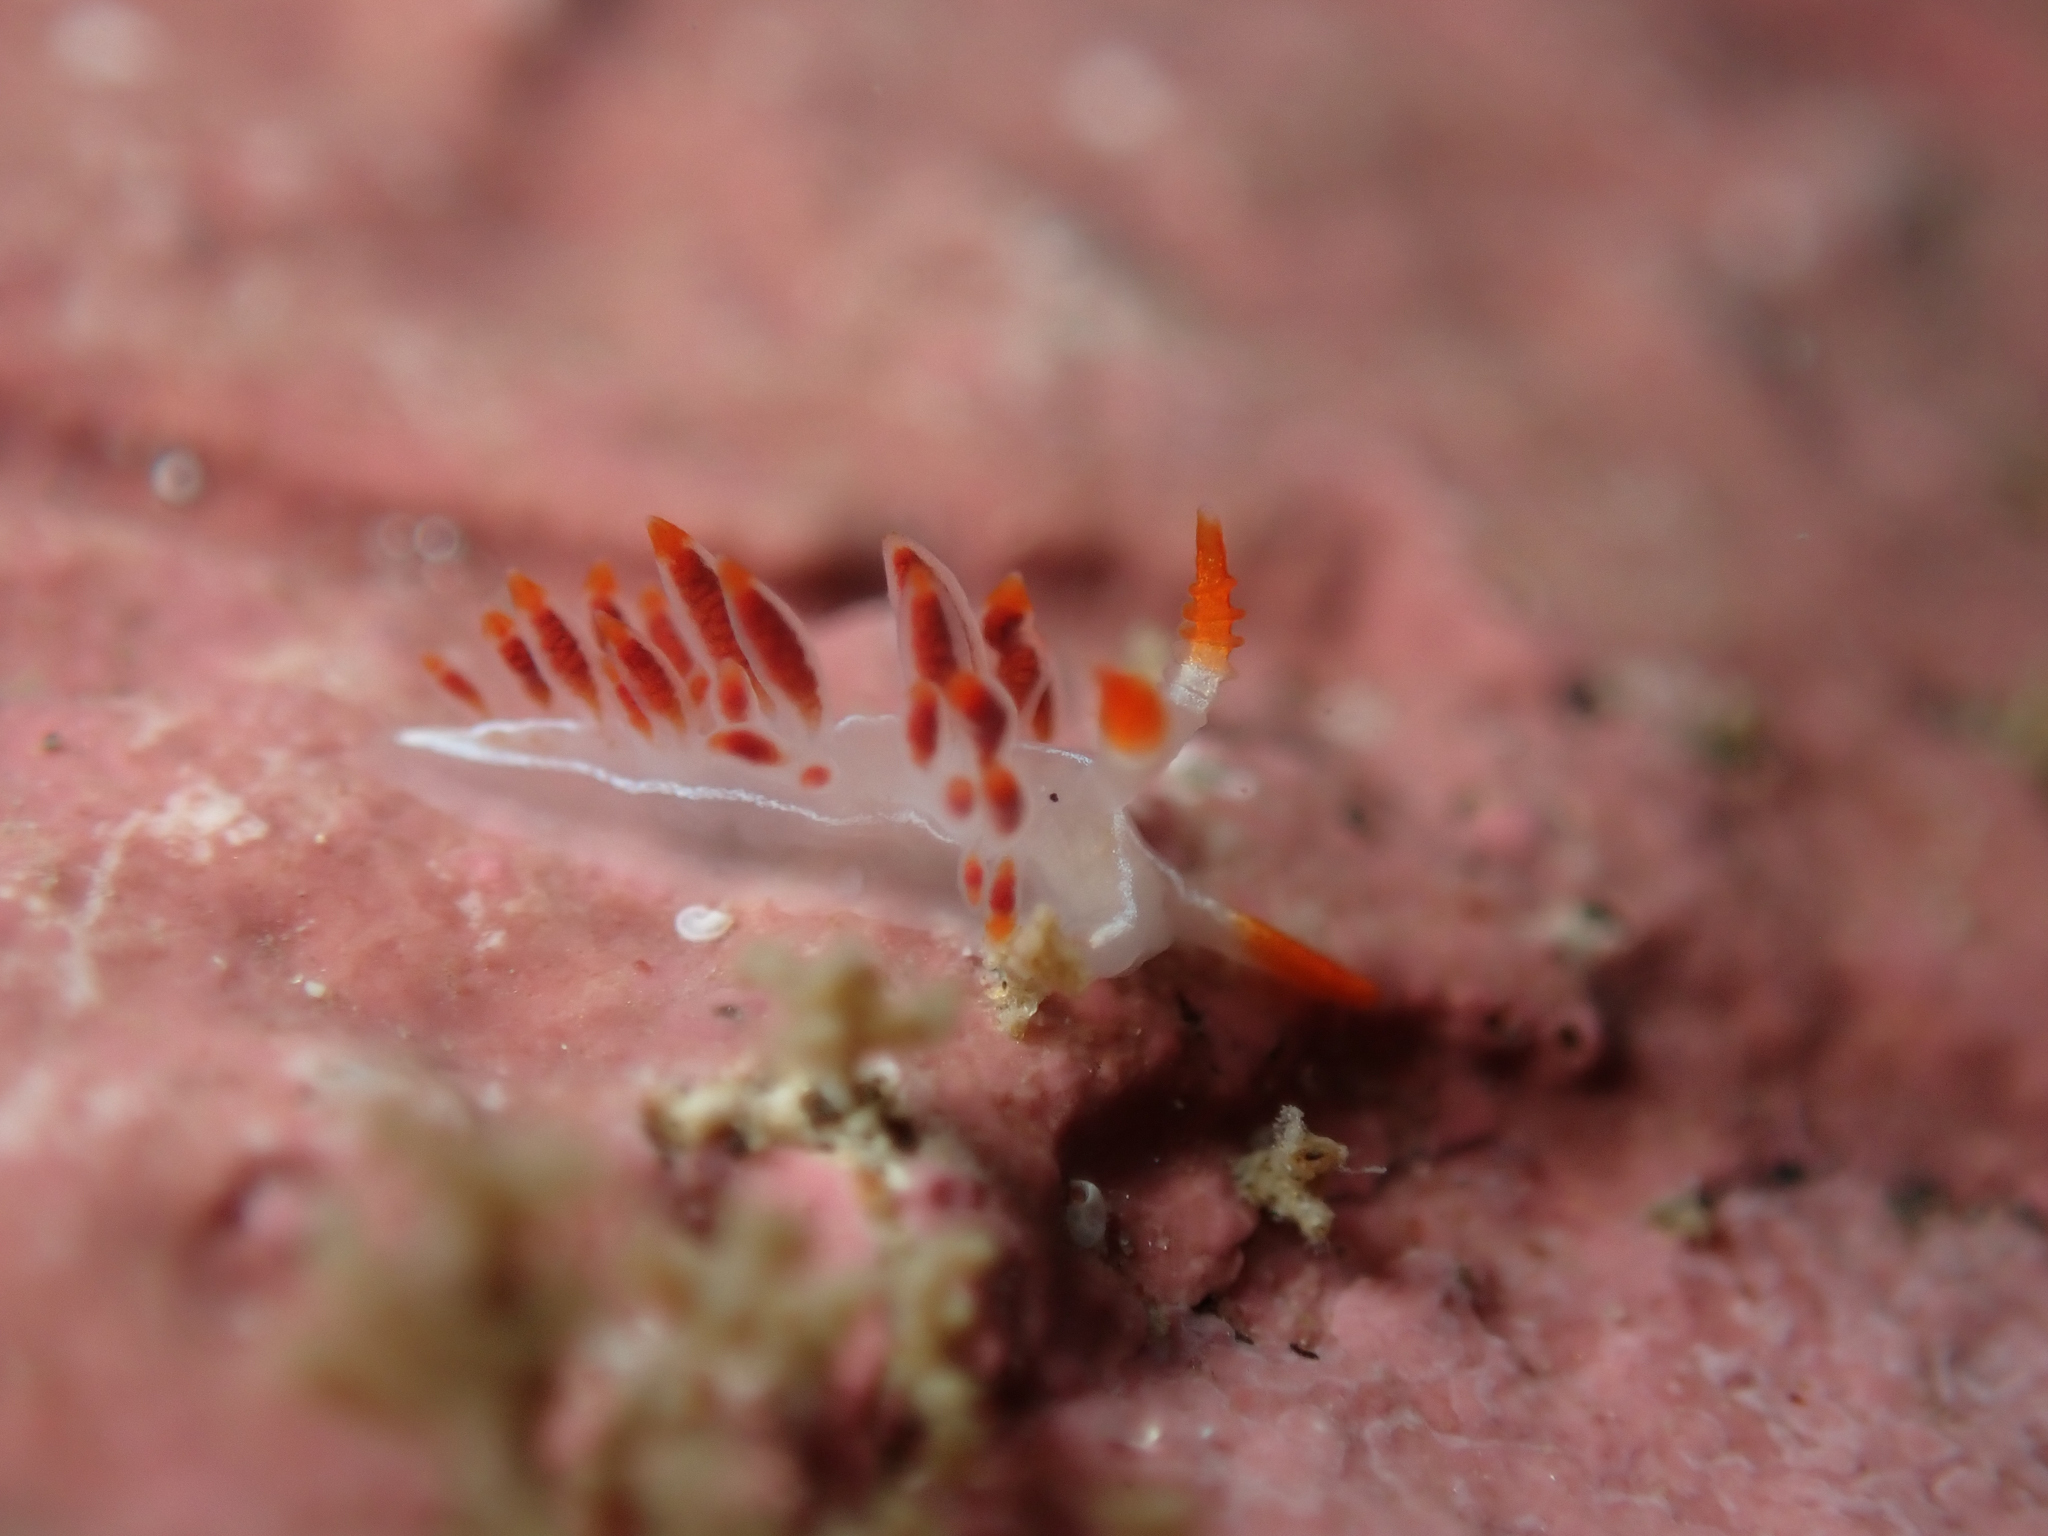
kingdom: Animalia
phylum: Mollusca
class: Gastropoda
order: Nudibranchia
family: Coryphellidae
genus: Coryphella
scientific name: Coryphella trilineata
